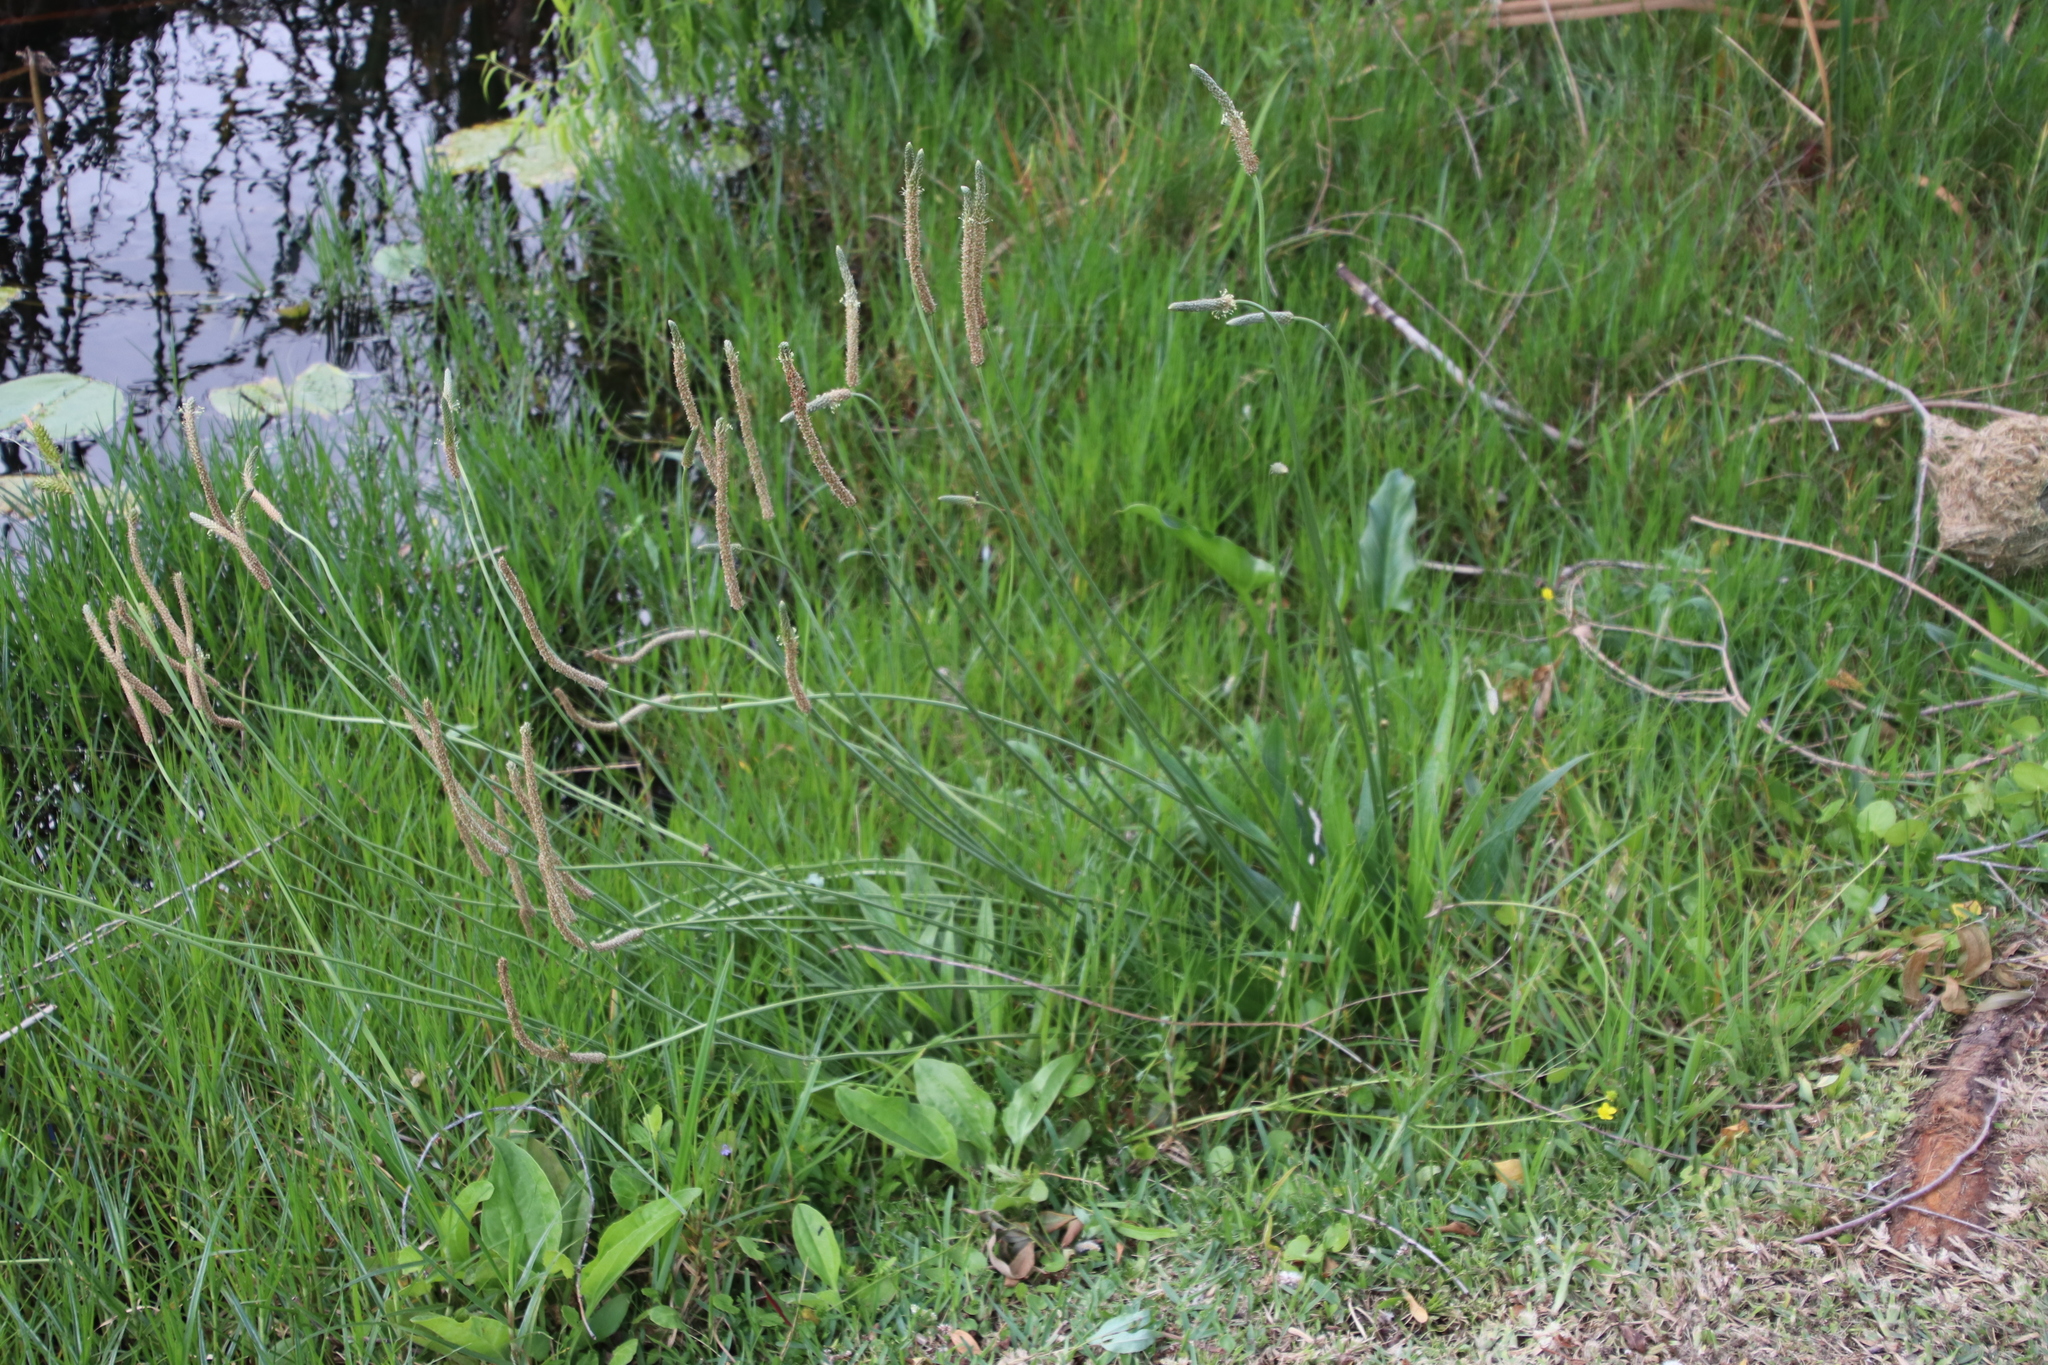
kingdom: Plantae
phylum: Tracheophyta
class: Magnoliopsida
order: Lamiales
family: Plantaginaceae
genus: Plantago
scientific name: Plantago lanceolata
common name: Ribwort plantain
